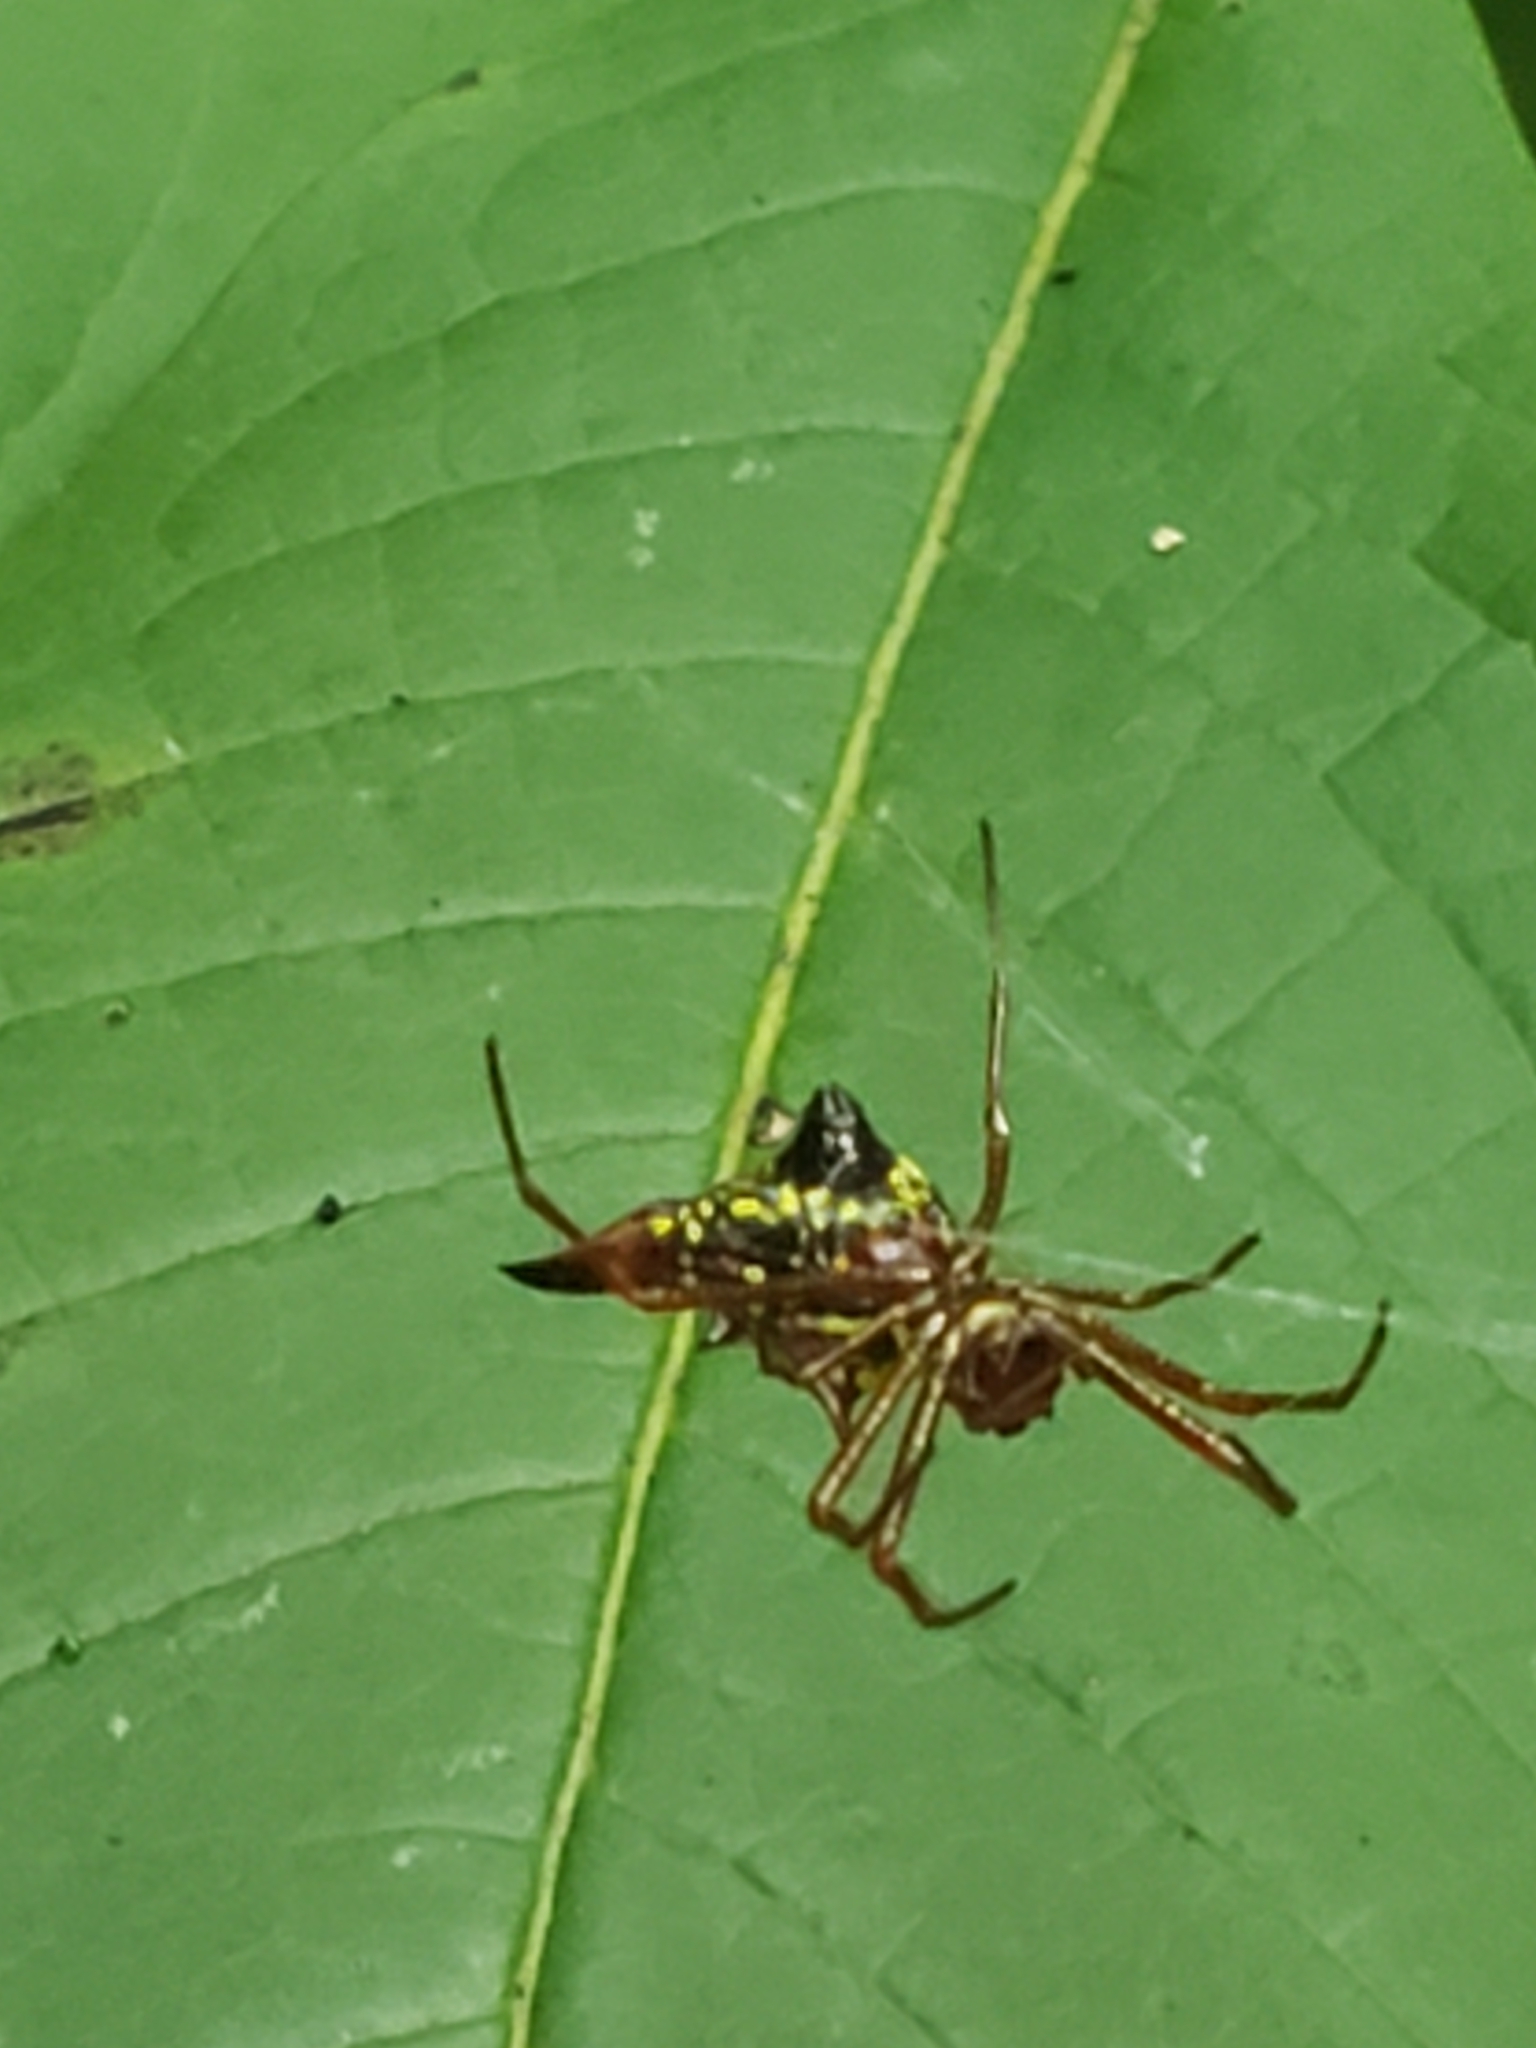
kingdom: Animalia
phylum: Arthropoda
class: Arachnida
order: Araneae
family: Araneidae
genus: Micrathena
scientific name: Micrathena sagittata
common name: Orb weavers
